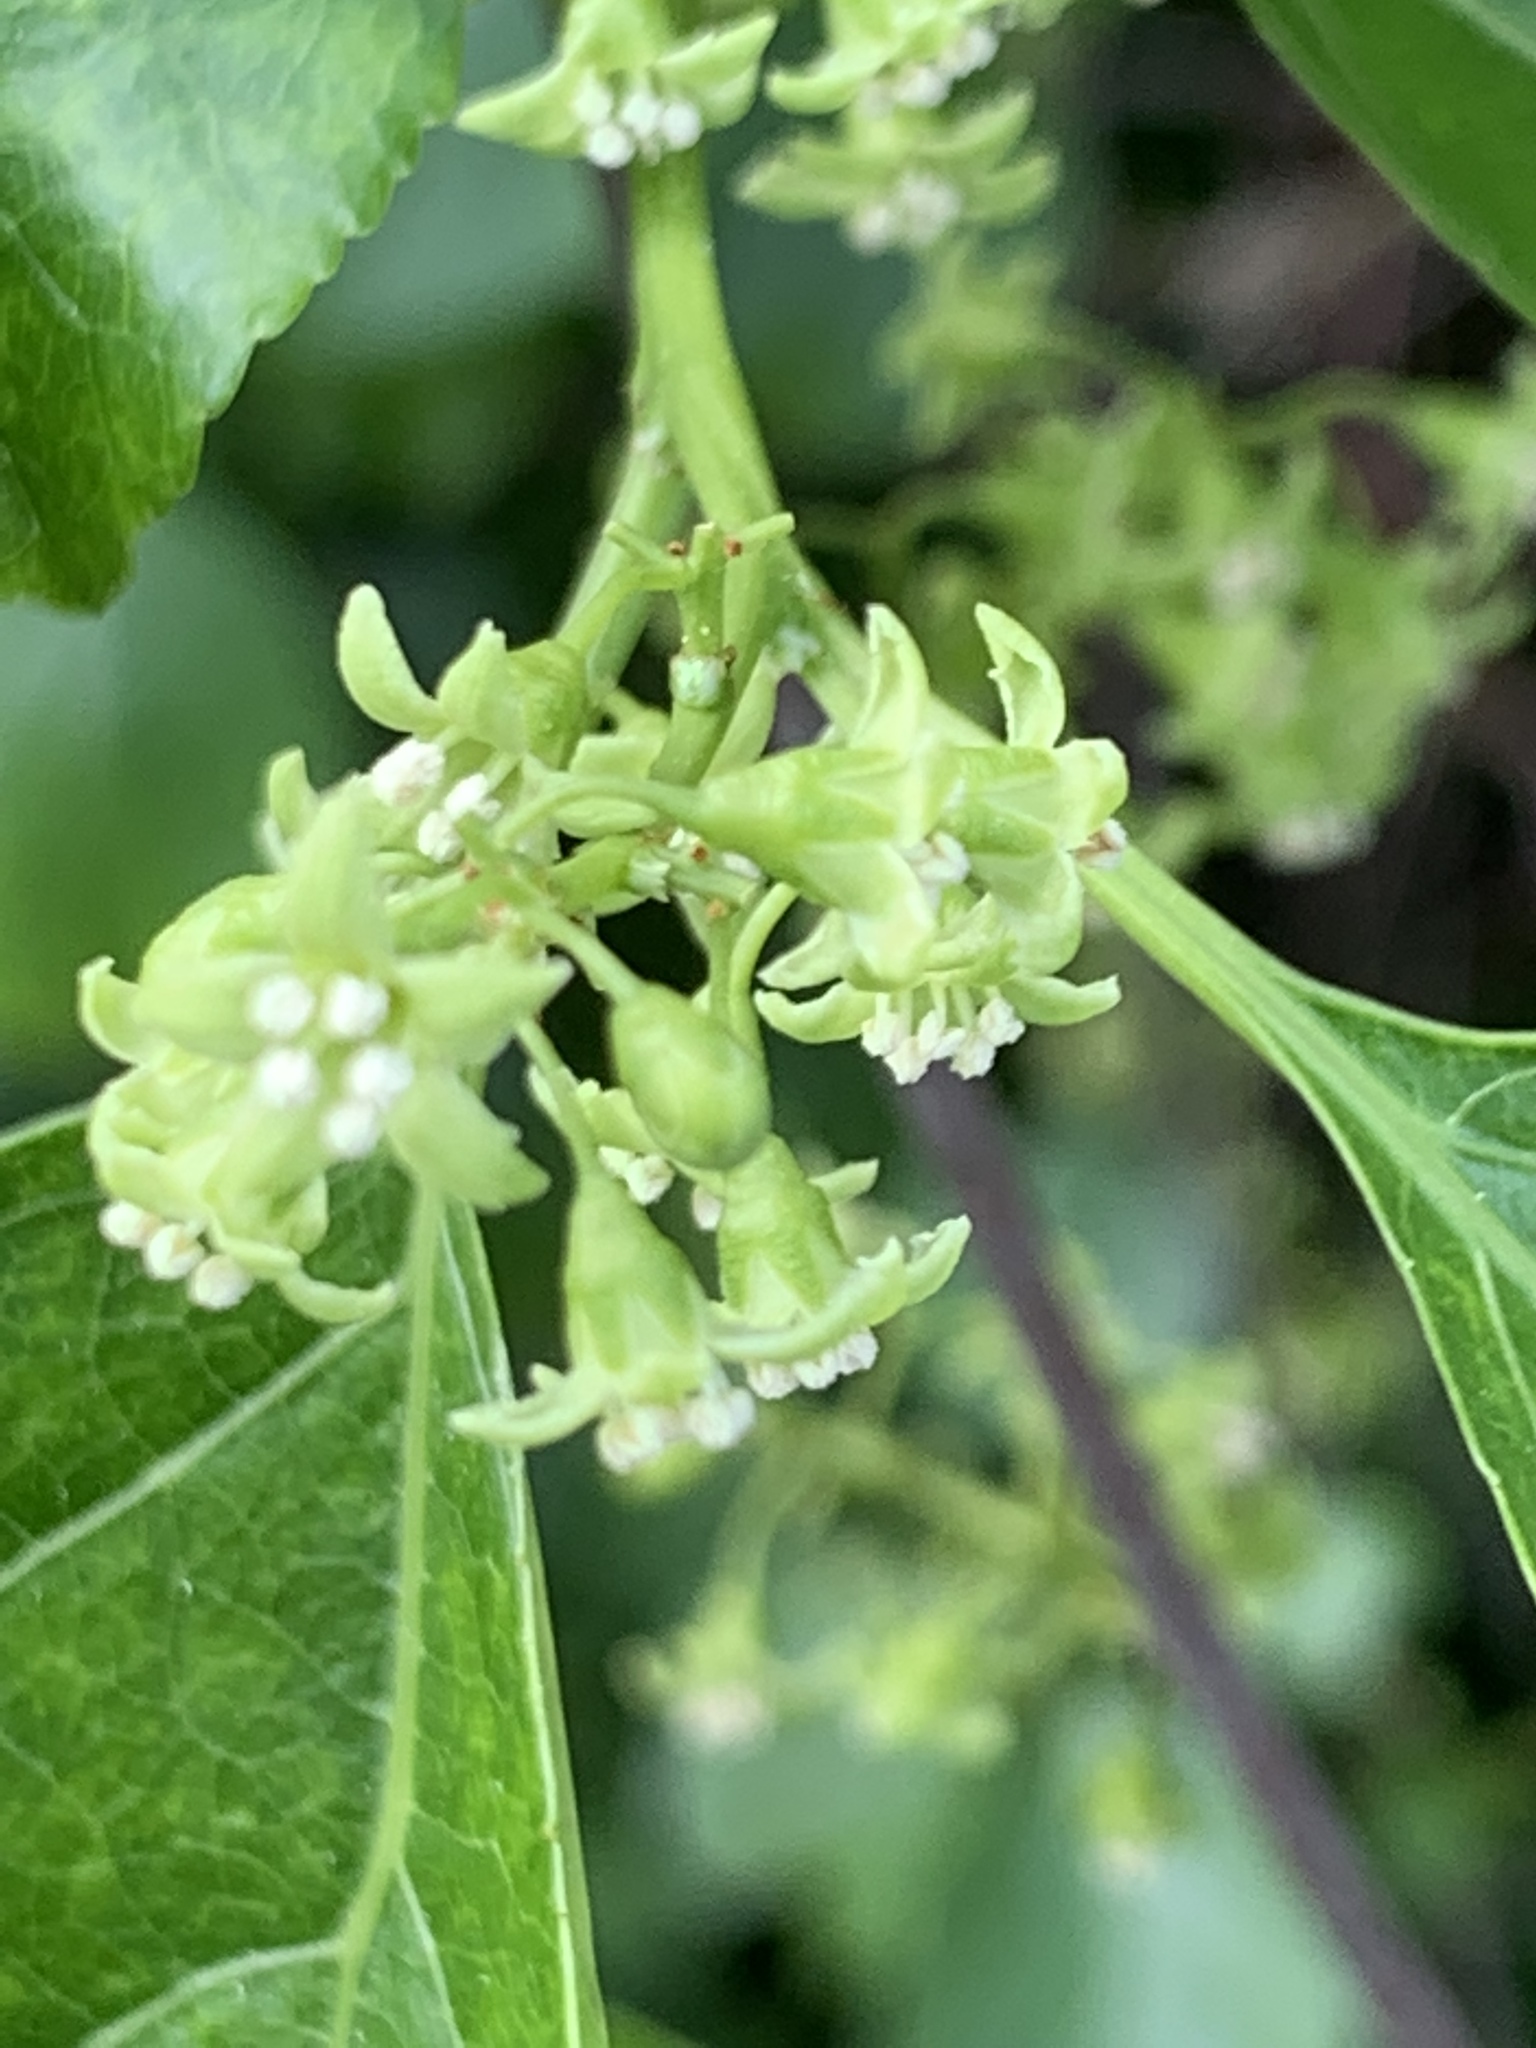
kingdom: Plantae
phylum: Tracheophyta
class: Magnoliopsida
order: Celastrales
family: Celastraceae
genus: Celastrus
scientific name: Celastrus orbiculatus
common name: Oriental bittersweet
